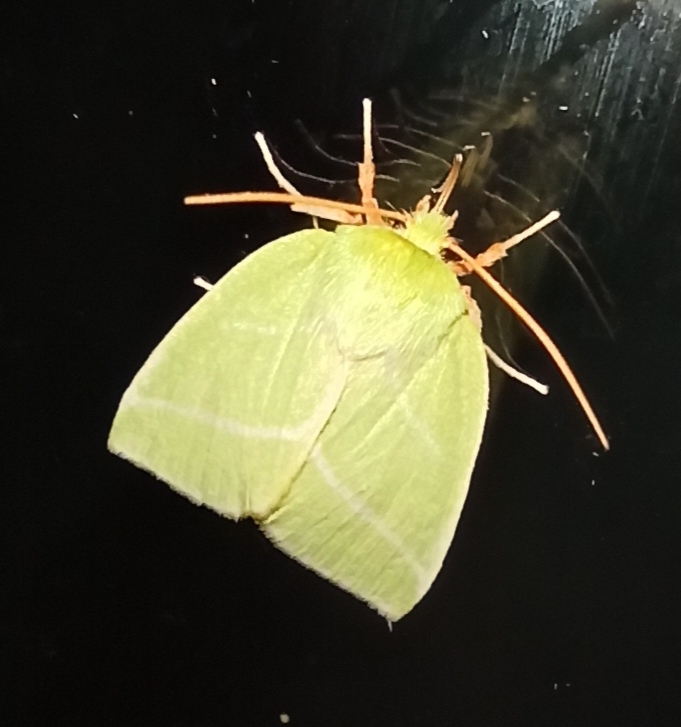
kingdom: Animalia
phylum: Arthropoda
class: Insecta
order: Lepidoptera
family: Nolidae
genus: Pseudoips
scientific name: Pseudoips prasinana
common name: Green silver-lines
